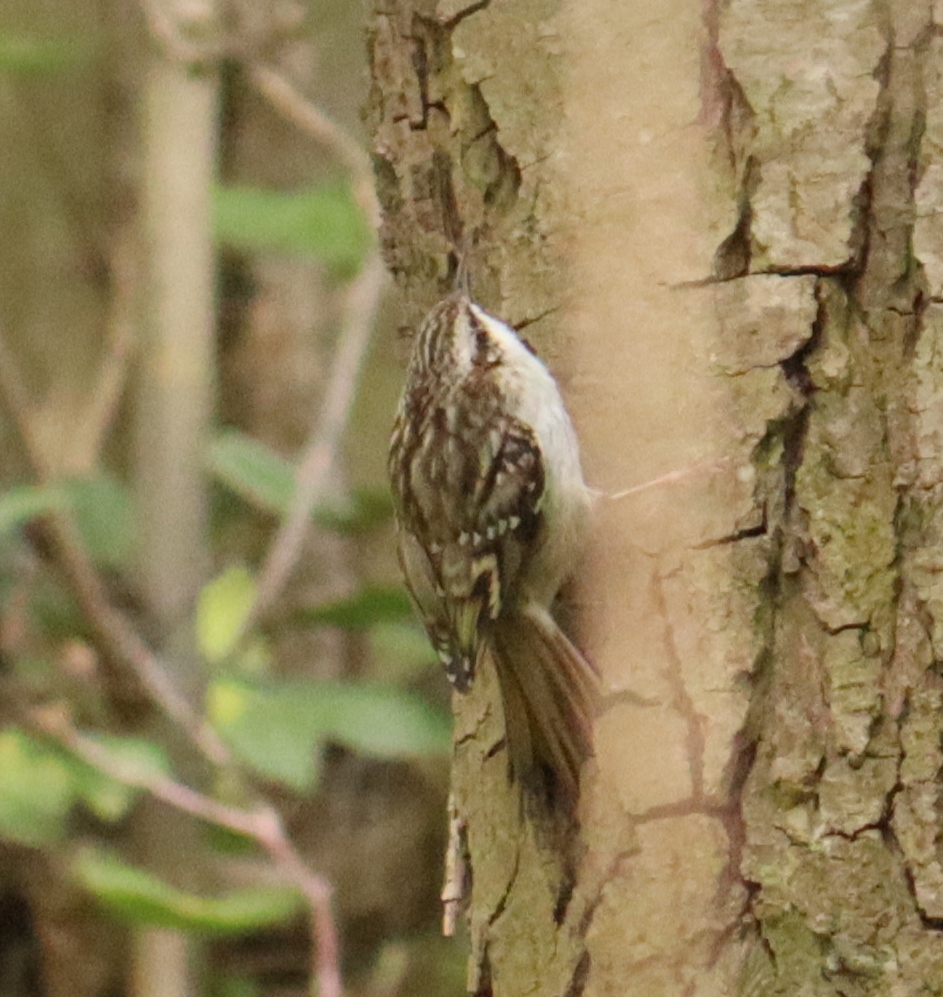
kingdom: Animalia
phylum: Chordata
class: Aves
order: Passeriformes
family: Certhiidae
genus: Certhia
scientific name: Certhia brachydactyla
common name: Short-toed treecreeper
